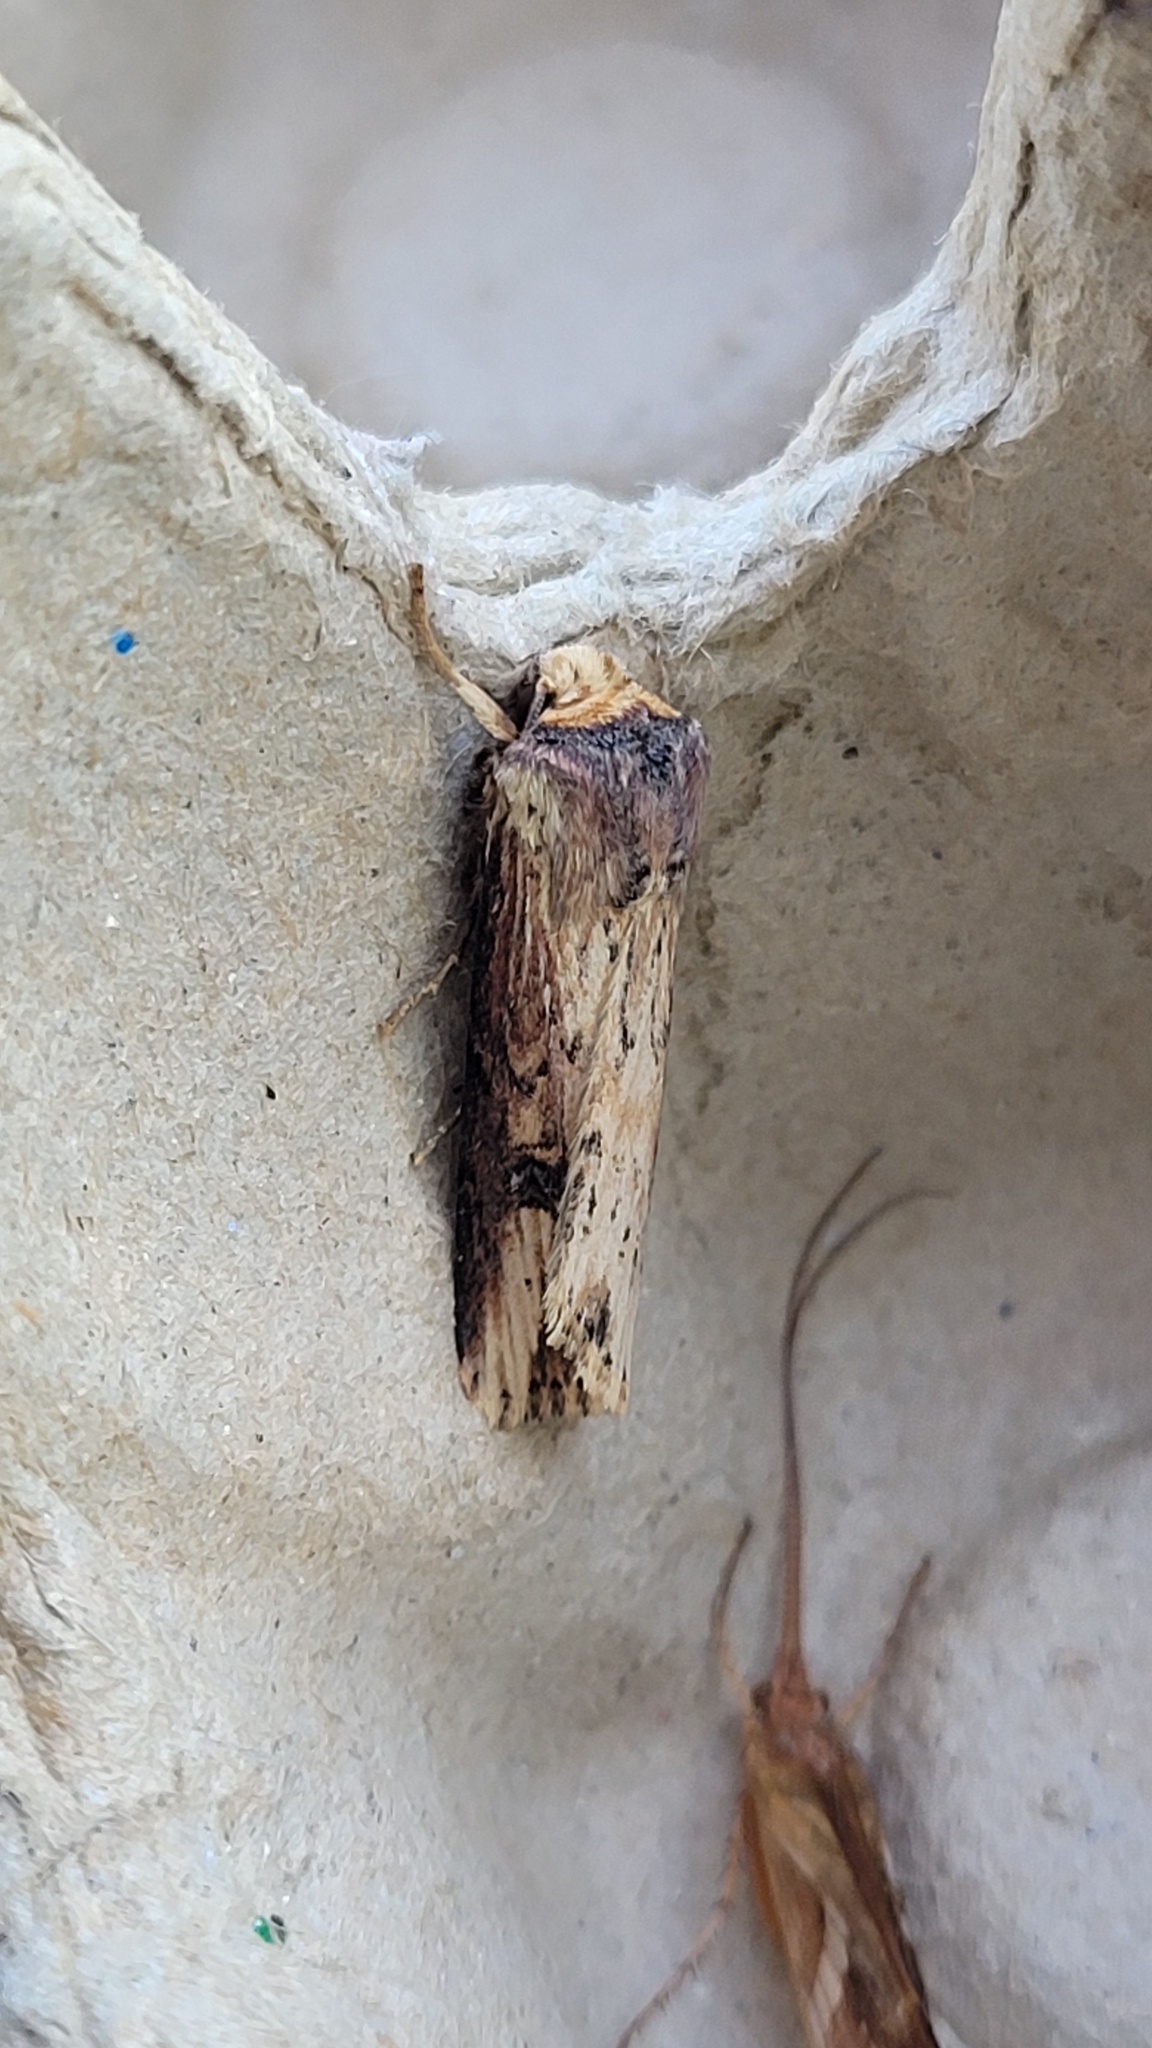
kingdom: Animalia
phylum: Arthropoda
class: Insecta
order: Lepidoptera
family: Noctuidae
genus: Axylia
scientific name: Axylia putris
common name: Flame
